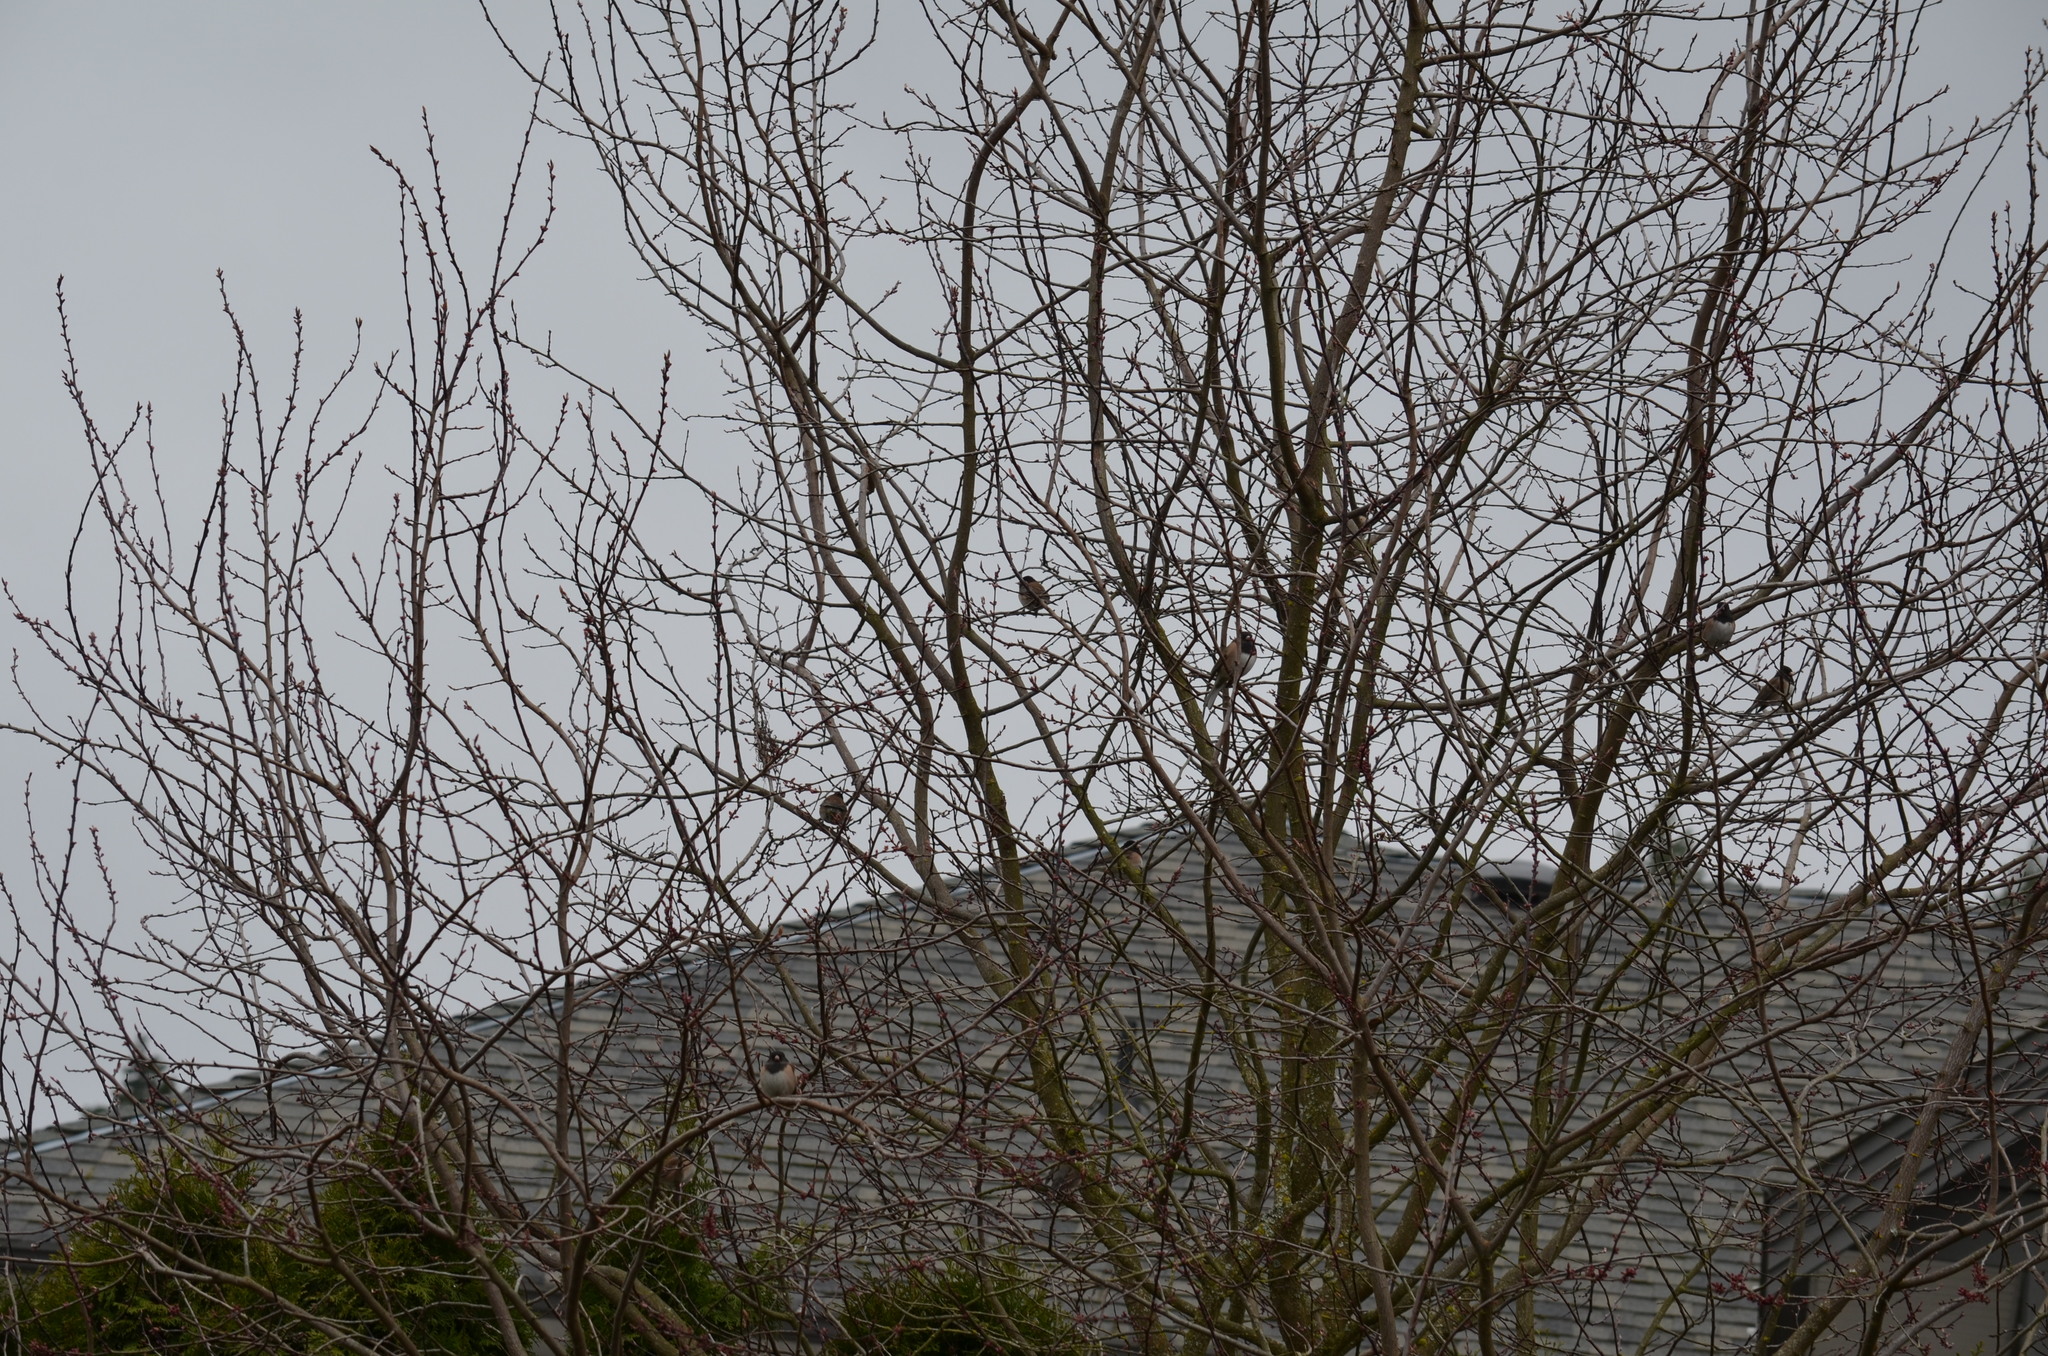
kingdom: Animalia
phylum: Chordata
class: Aves
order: Passeriformes
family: Passerellidae
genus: Junco
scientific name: Junco hyemalis
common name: Dark-eyed junco
